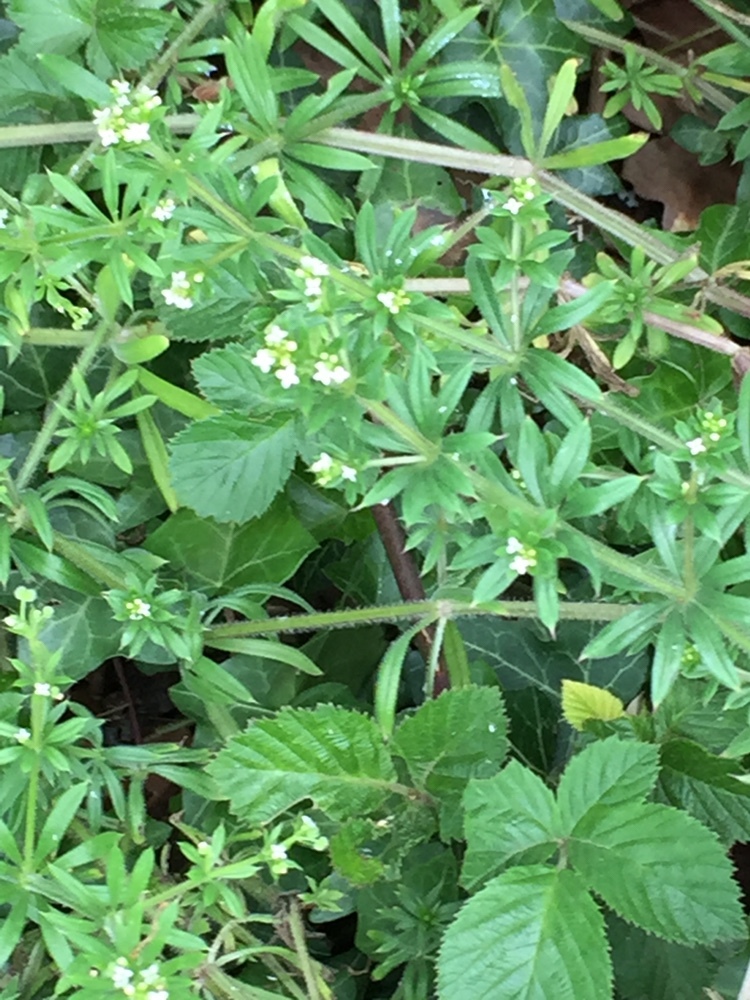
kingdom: Plantae
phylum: Tracheophyta
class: Magnoliopsida
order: Gentianales
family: Rubiaceae
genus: Galium
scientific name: Galium aparine
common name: Cleavers
